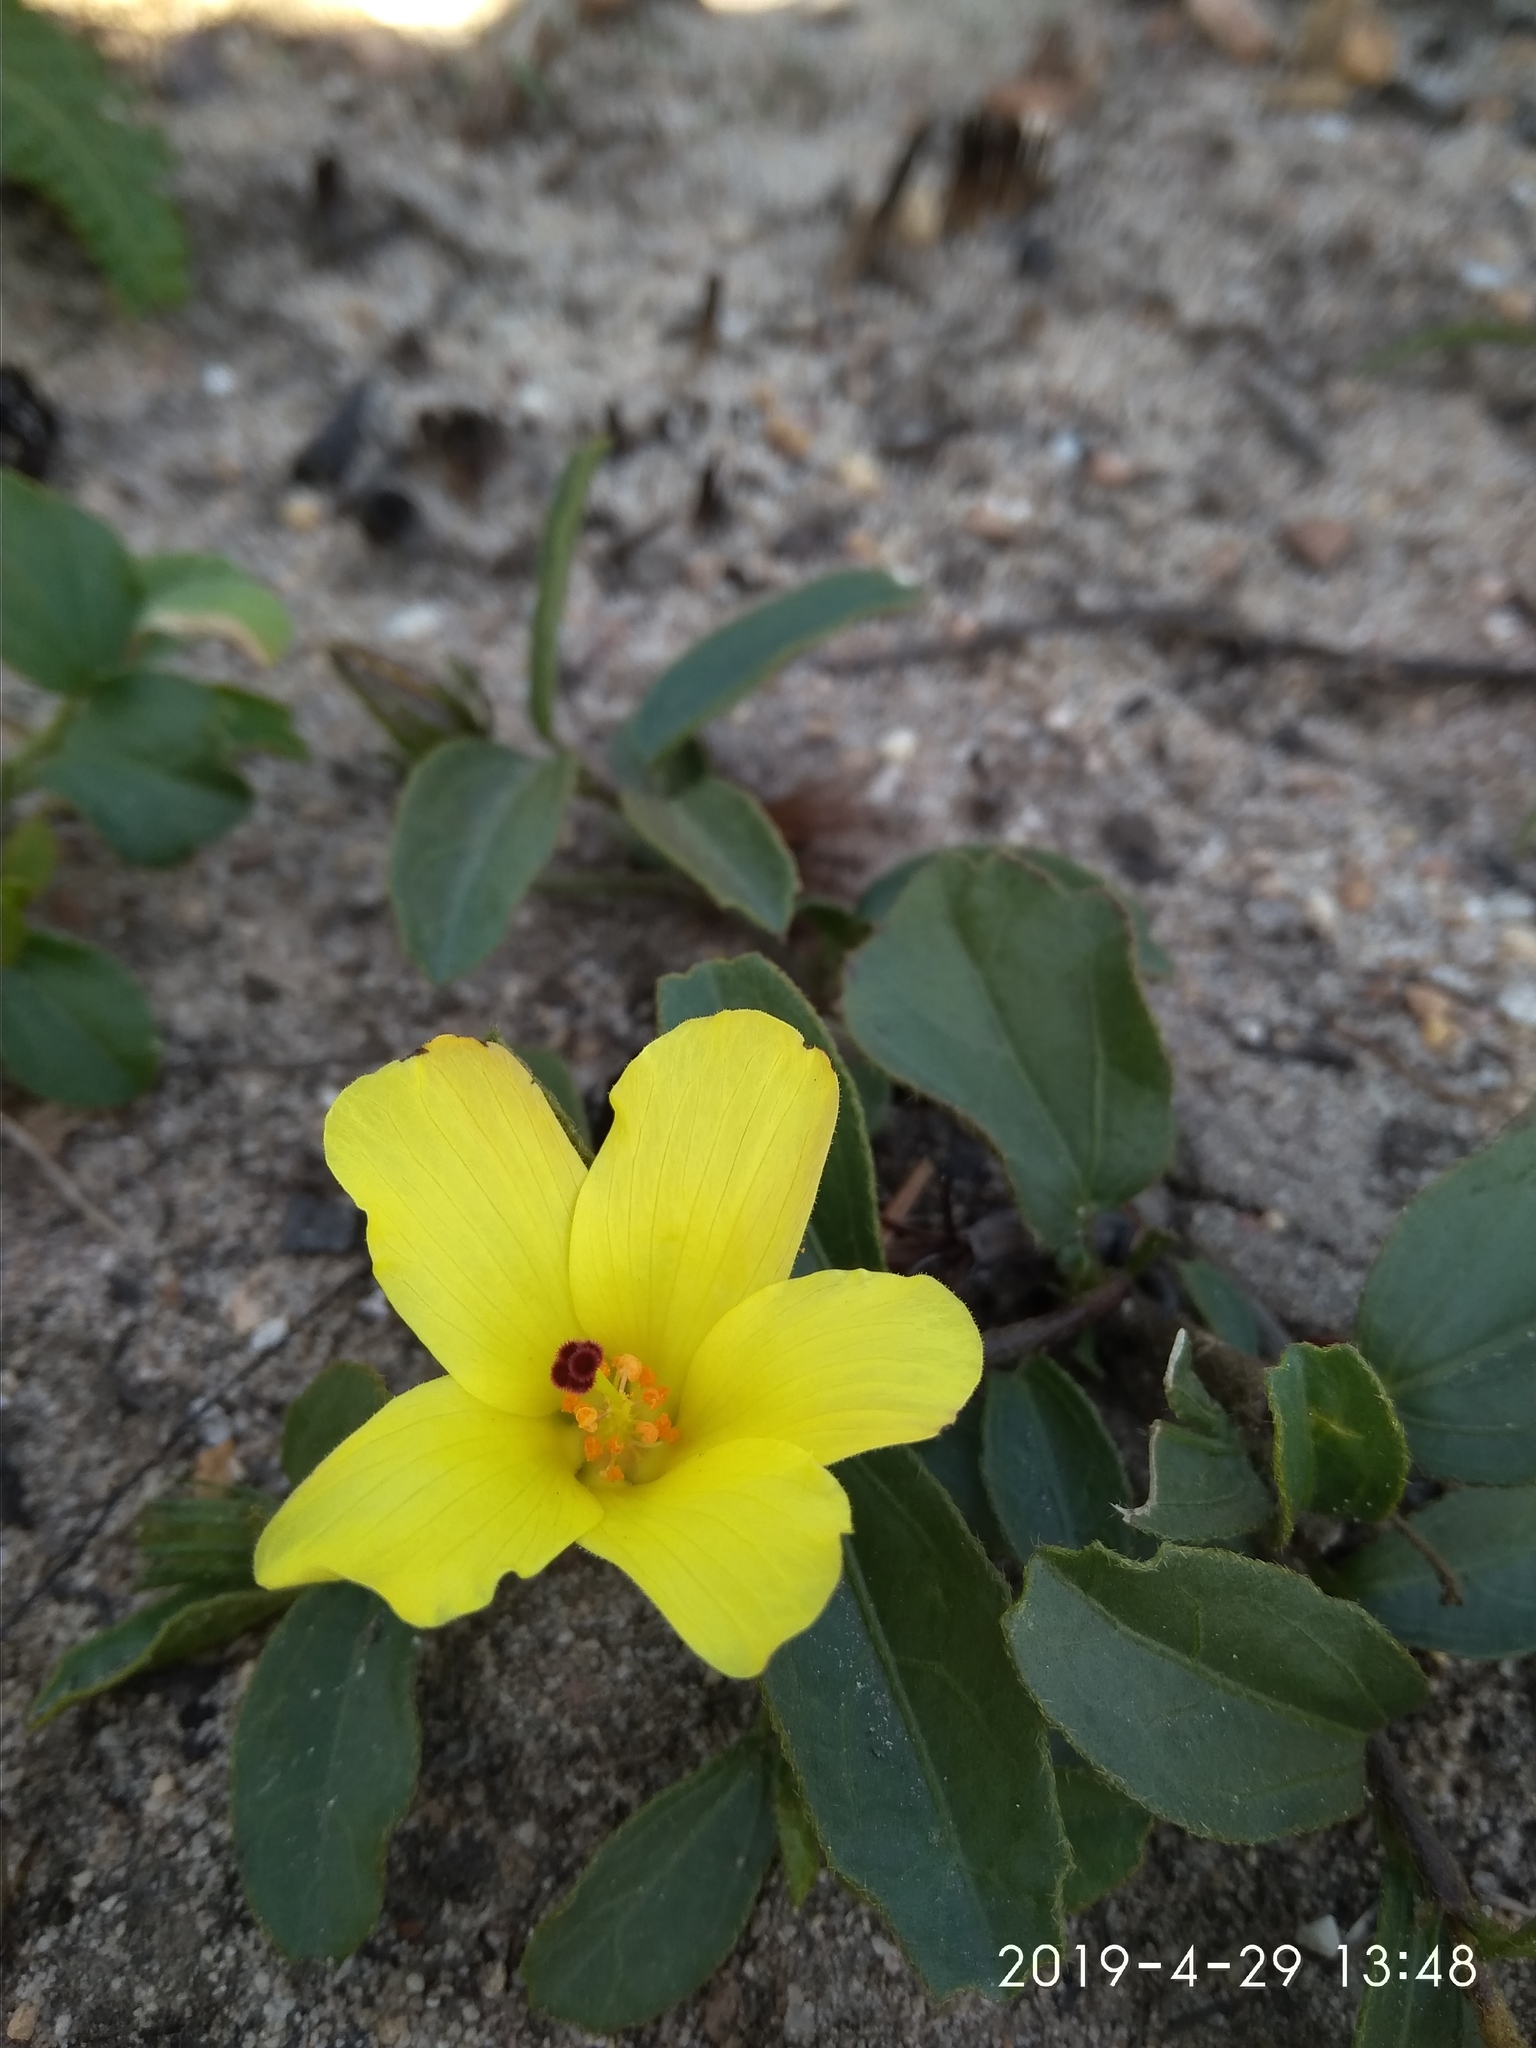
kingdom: Plantae
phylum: Tracheophyta
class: Magnoliopsida
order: Malvales
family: Malvaceae
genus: Hibiscus
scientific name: Hibiscus aethiopicus
